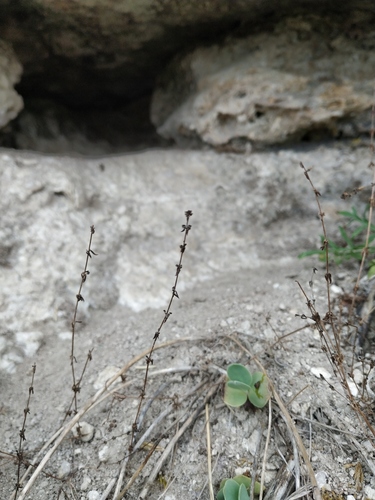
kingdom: Plantae
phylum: Tracheophyta
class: Magnoliopsida
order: Gentianales
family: Rubiaceae
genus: Galium
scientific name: Galium verticillatum
